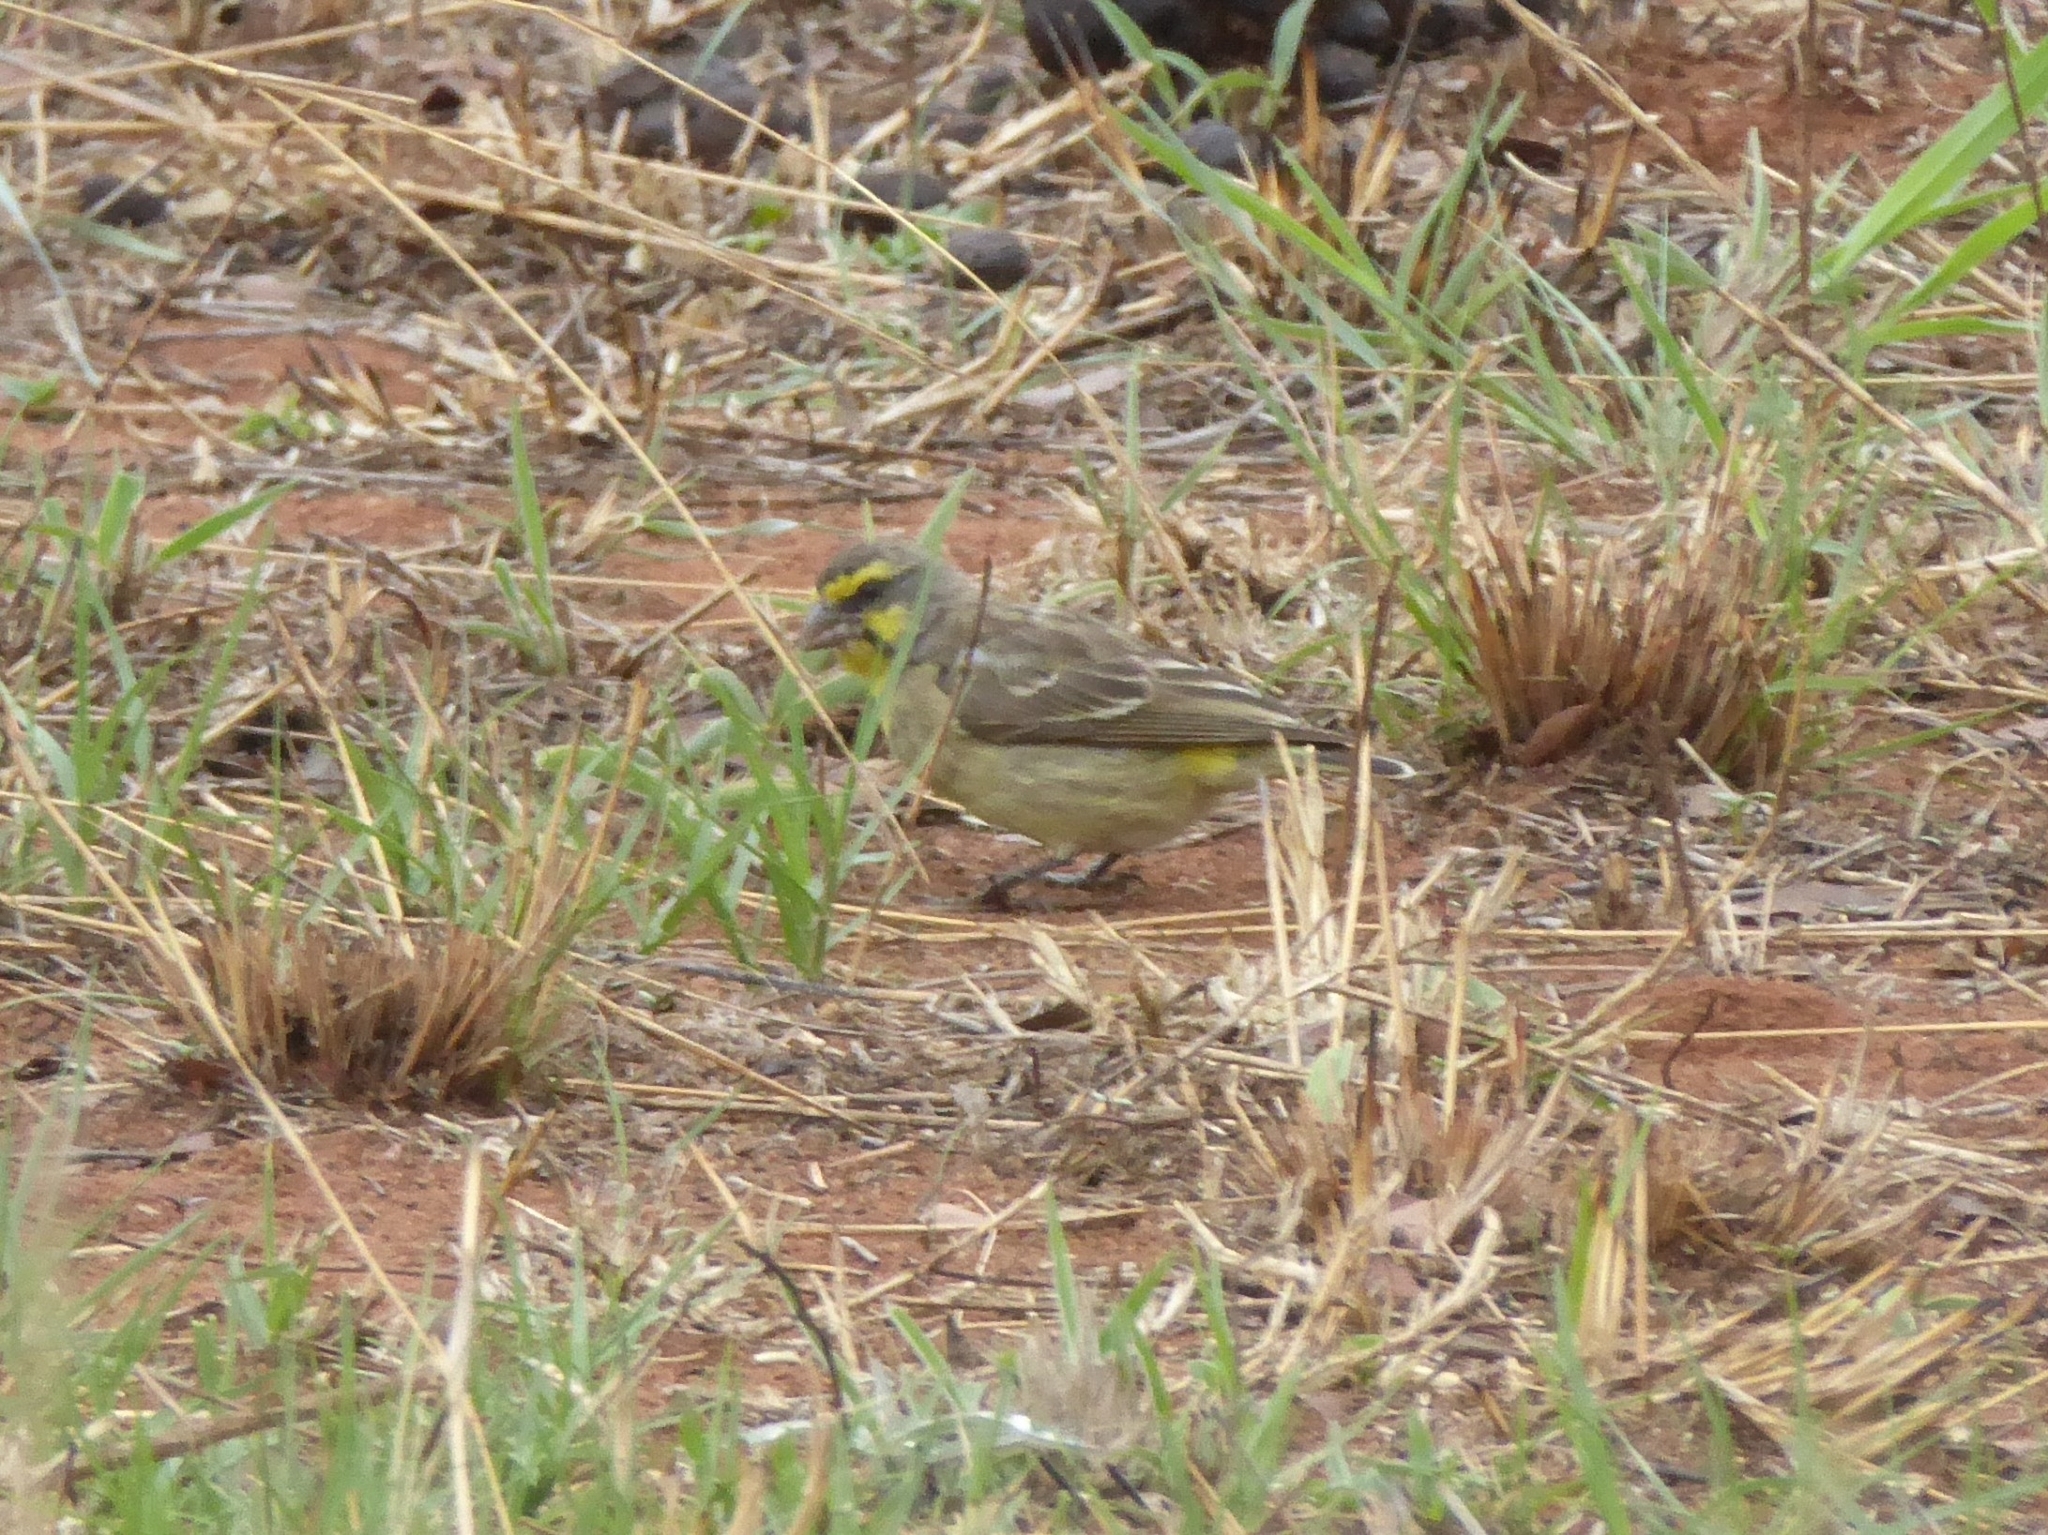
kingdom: Animalia
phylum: Chordata
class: Aves
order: Passeriformes
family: Fringillidae
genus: Crithagra
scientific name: Crithagra mozambica
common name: Yellow-fronted canary
